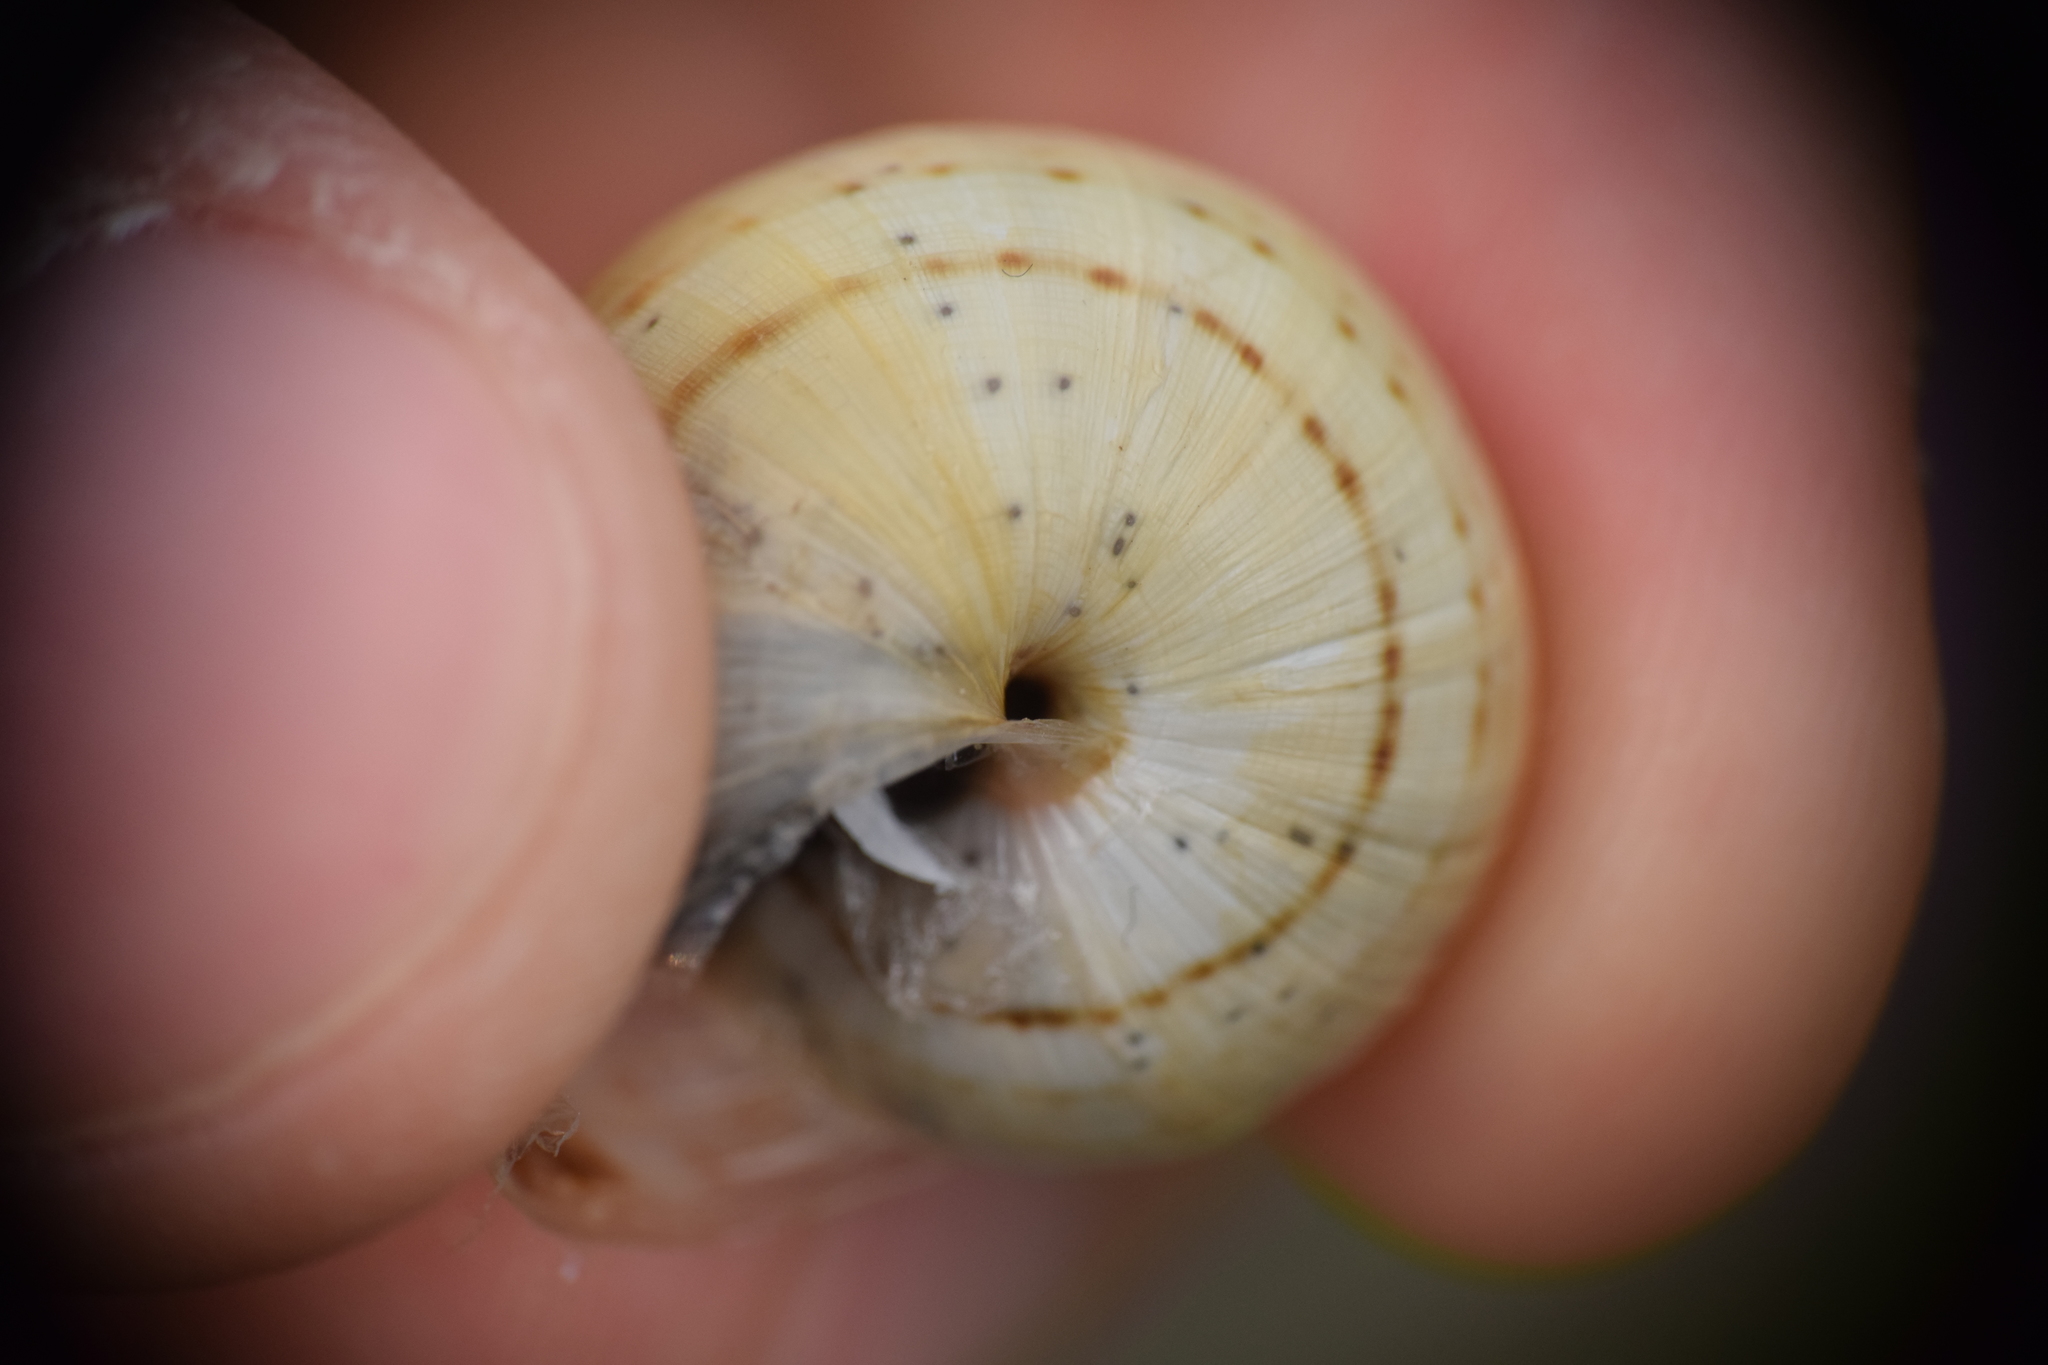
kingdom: Animalia
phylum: Mollusca
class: Gastropoda
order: Stylommatophora
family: Helicidae
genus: Theba
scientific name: Theba pisana
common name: White snail
